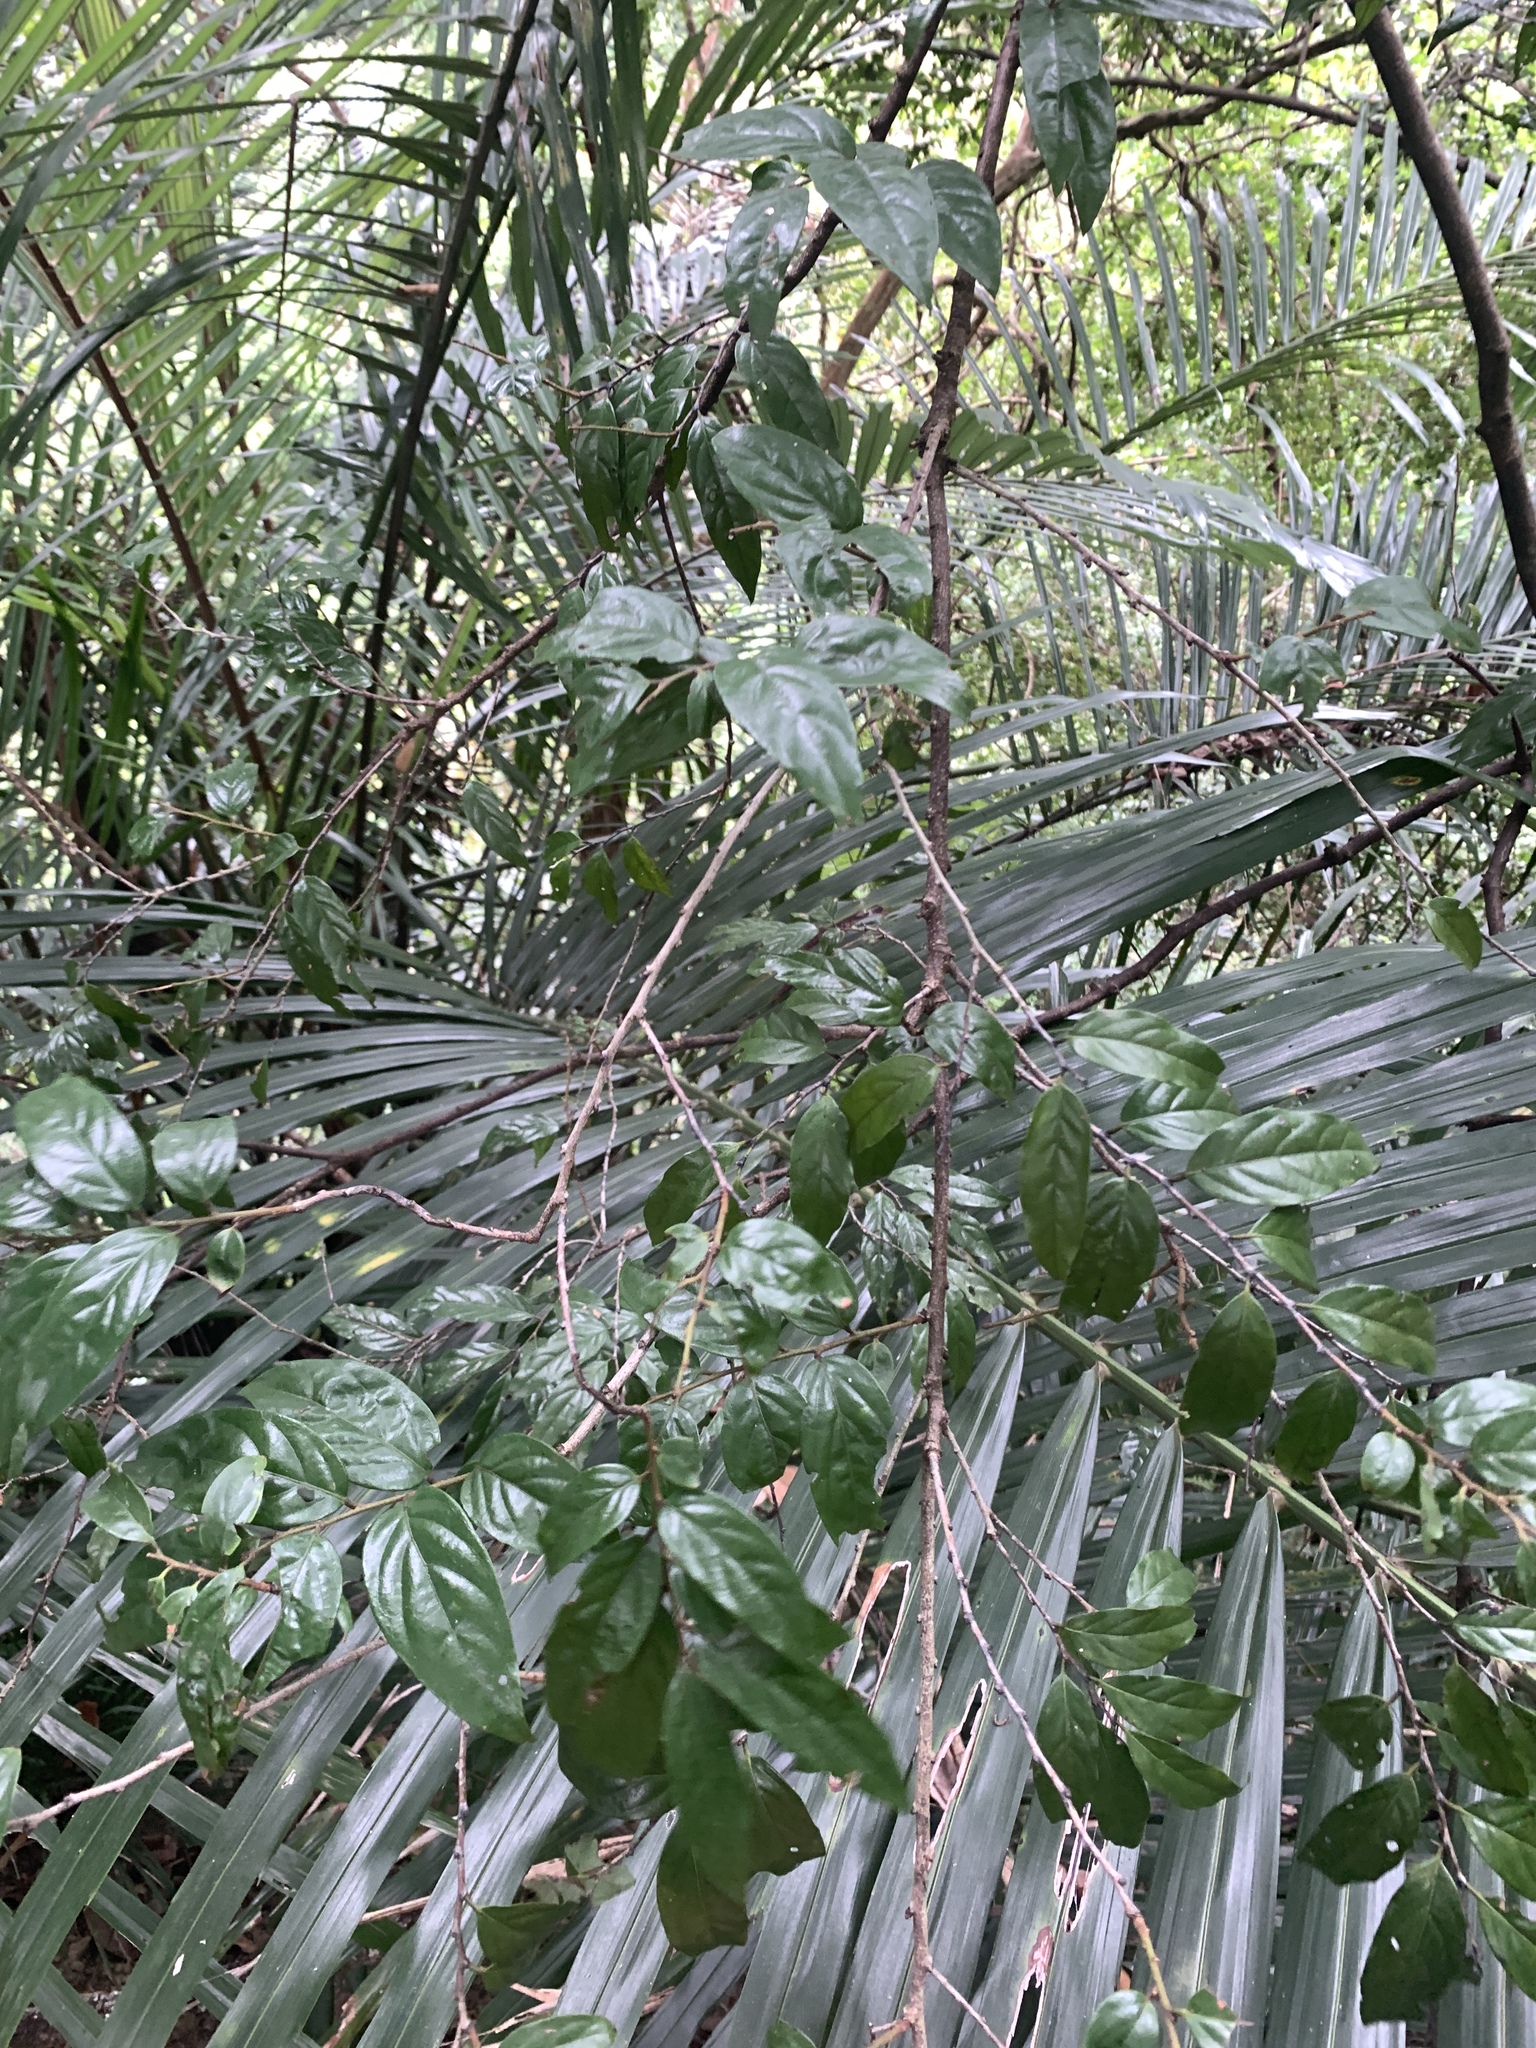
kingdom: Plantae
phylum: Tracheophyta
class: Magnoliopsida
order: Ericales
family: Ebenaceae
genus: Diospyros
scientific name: Diospyros eriantha
